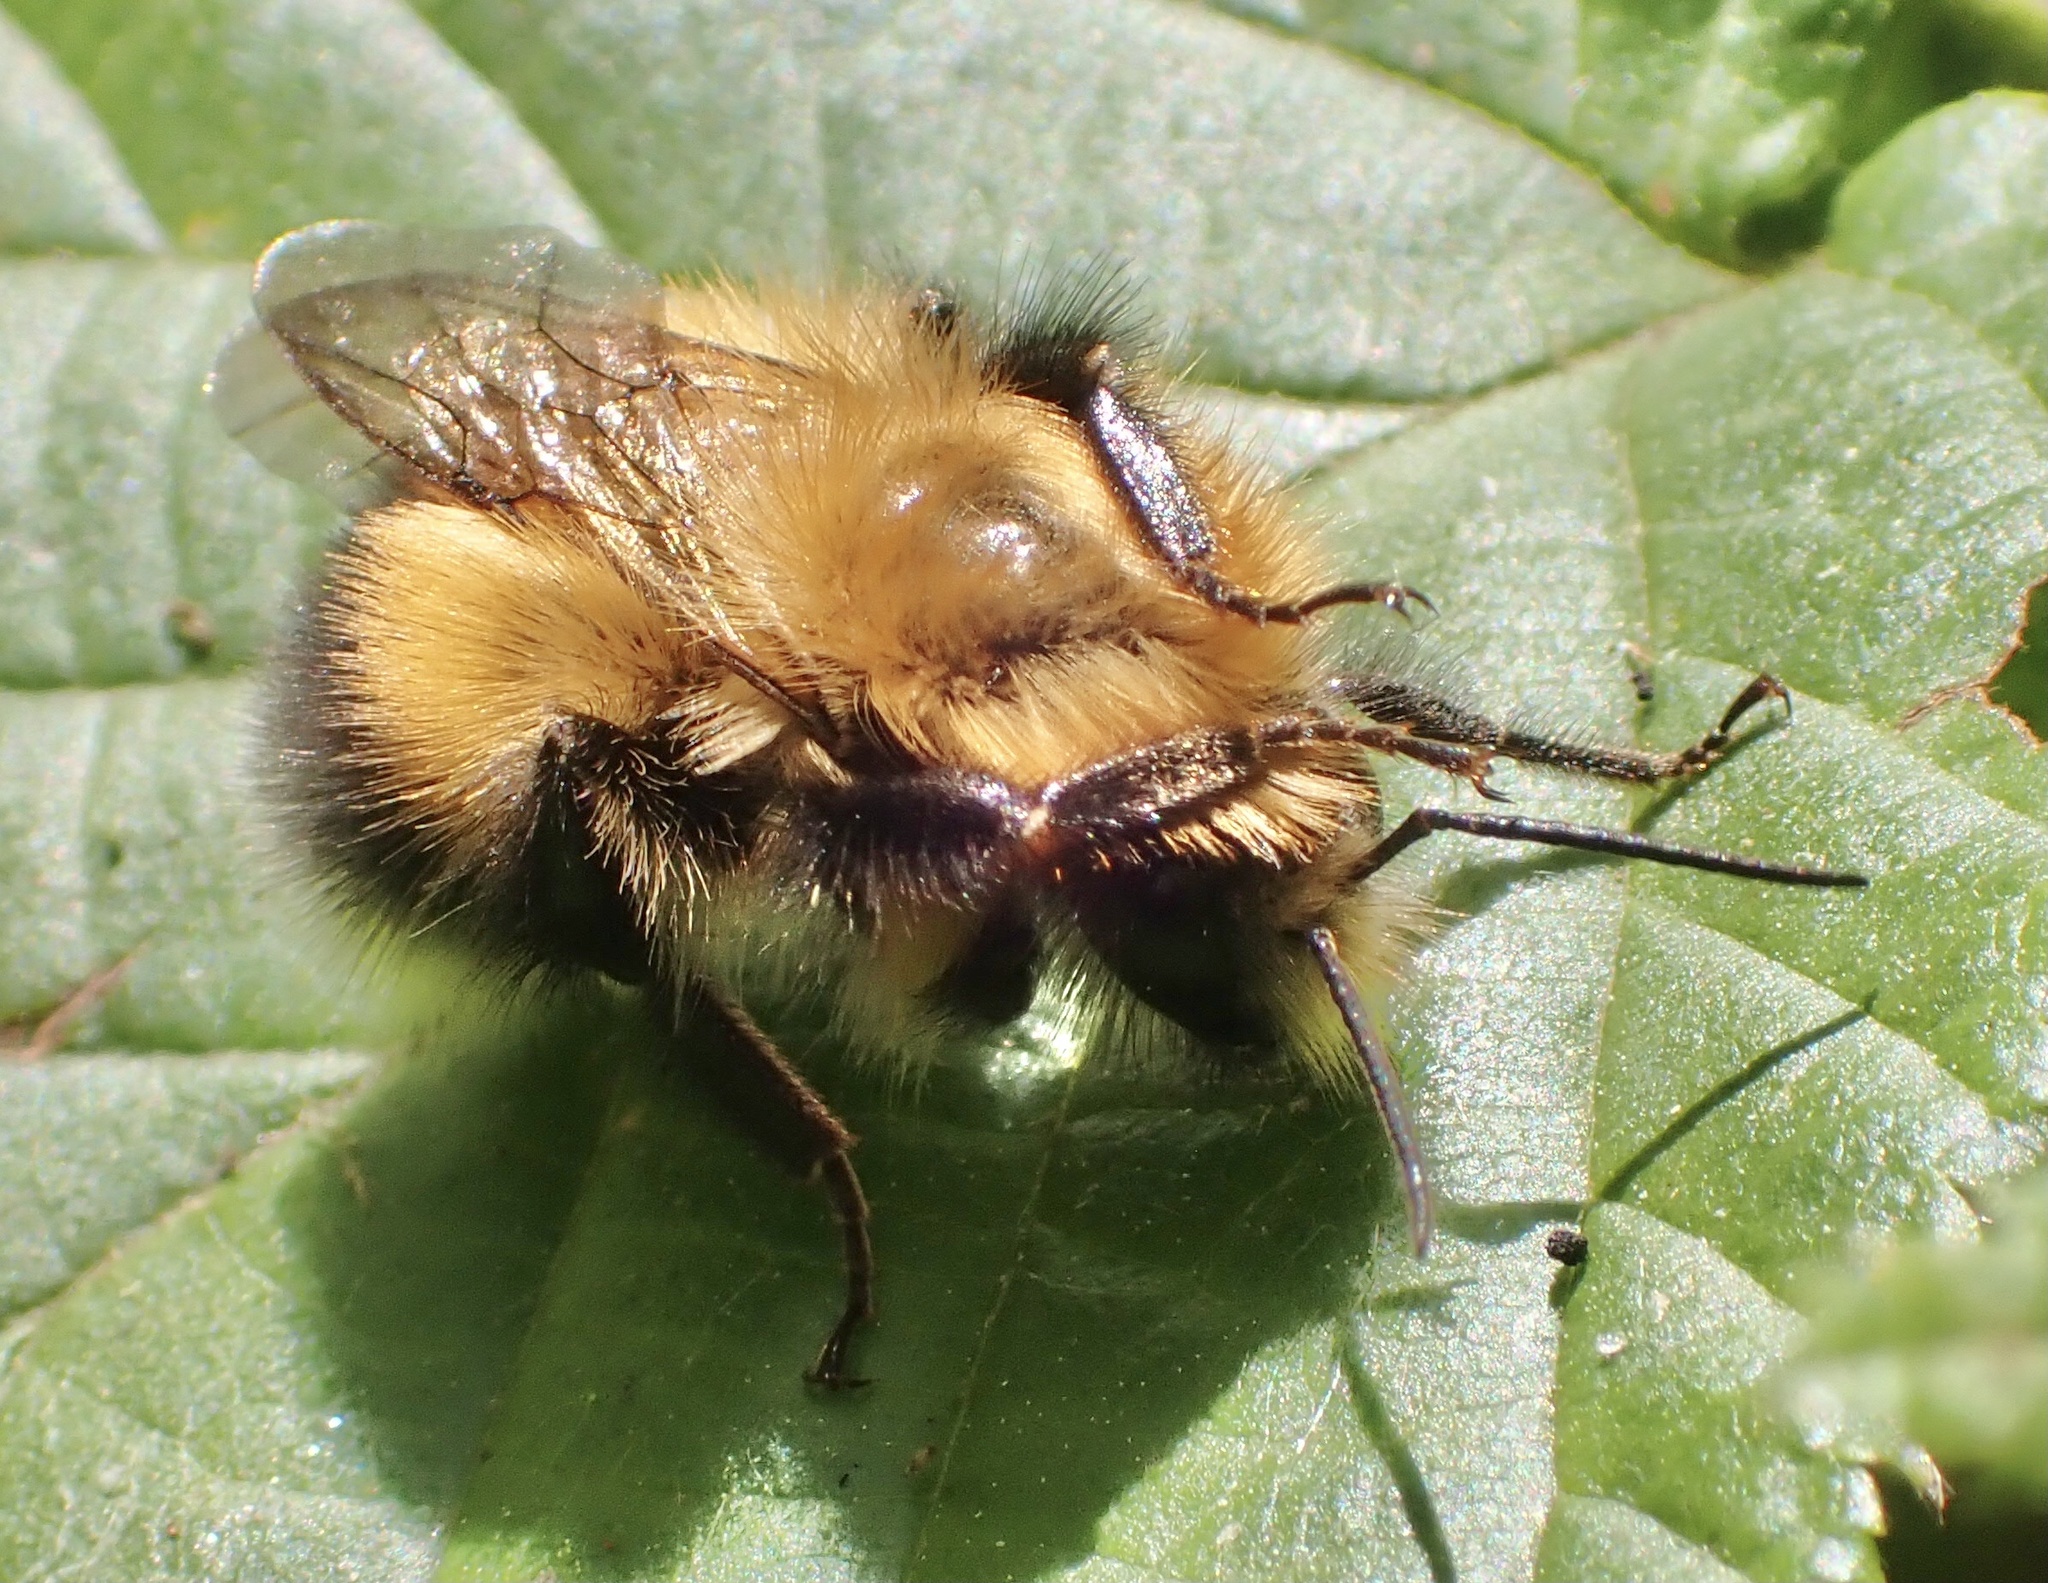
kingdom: Animalia
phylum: Arthropoda
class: Insecta
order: Hymenoptera
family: Apidae
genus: Bombus
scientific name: Bombus hypnorum
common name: New garden bumblebee
